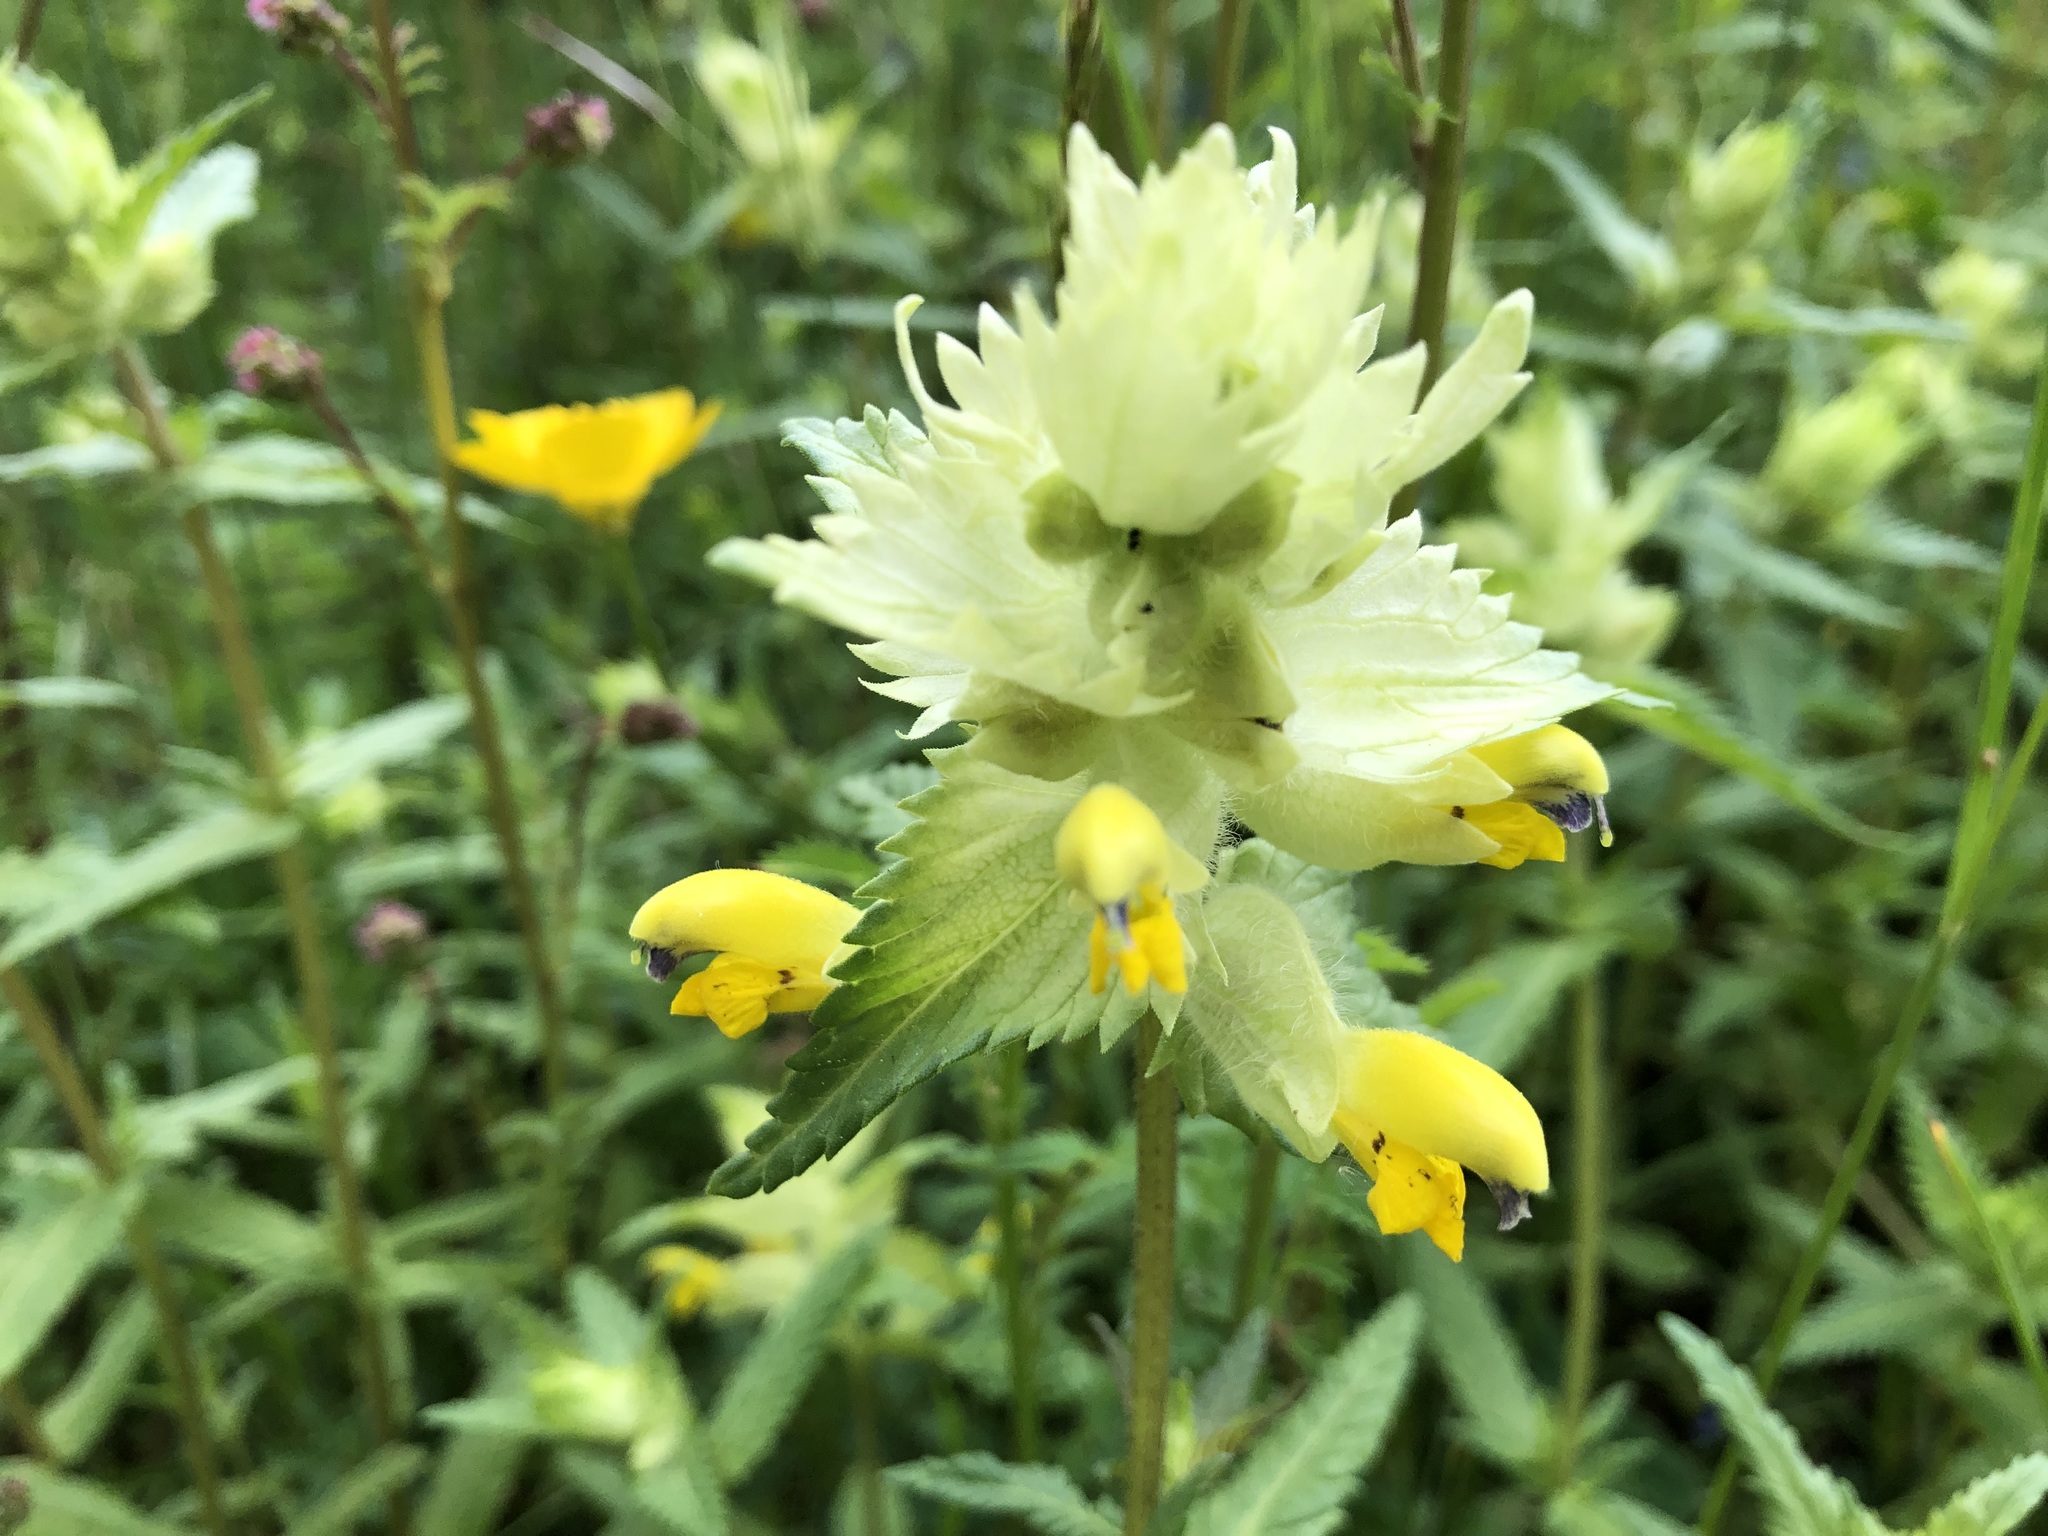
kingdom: Plantae
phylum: Tracheophyta
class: Magnoliopsida
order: Lamiales
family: Orobanchaceae
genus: Rhinanthus
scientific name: Rhinanthus alectorolophus
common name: Greater yellow-rattle
